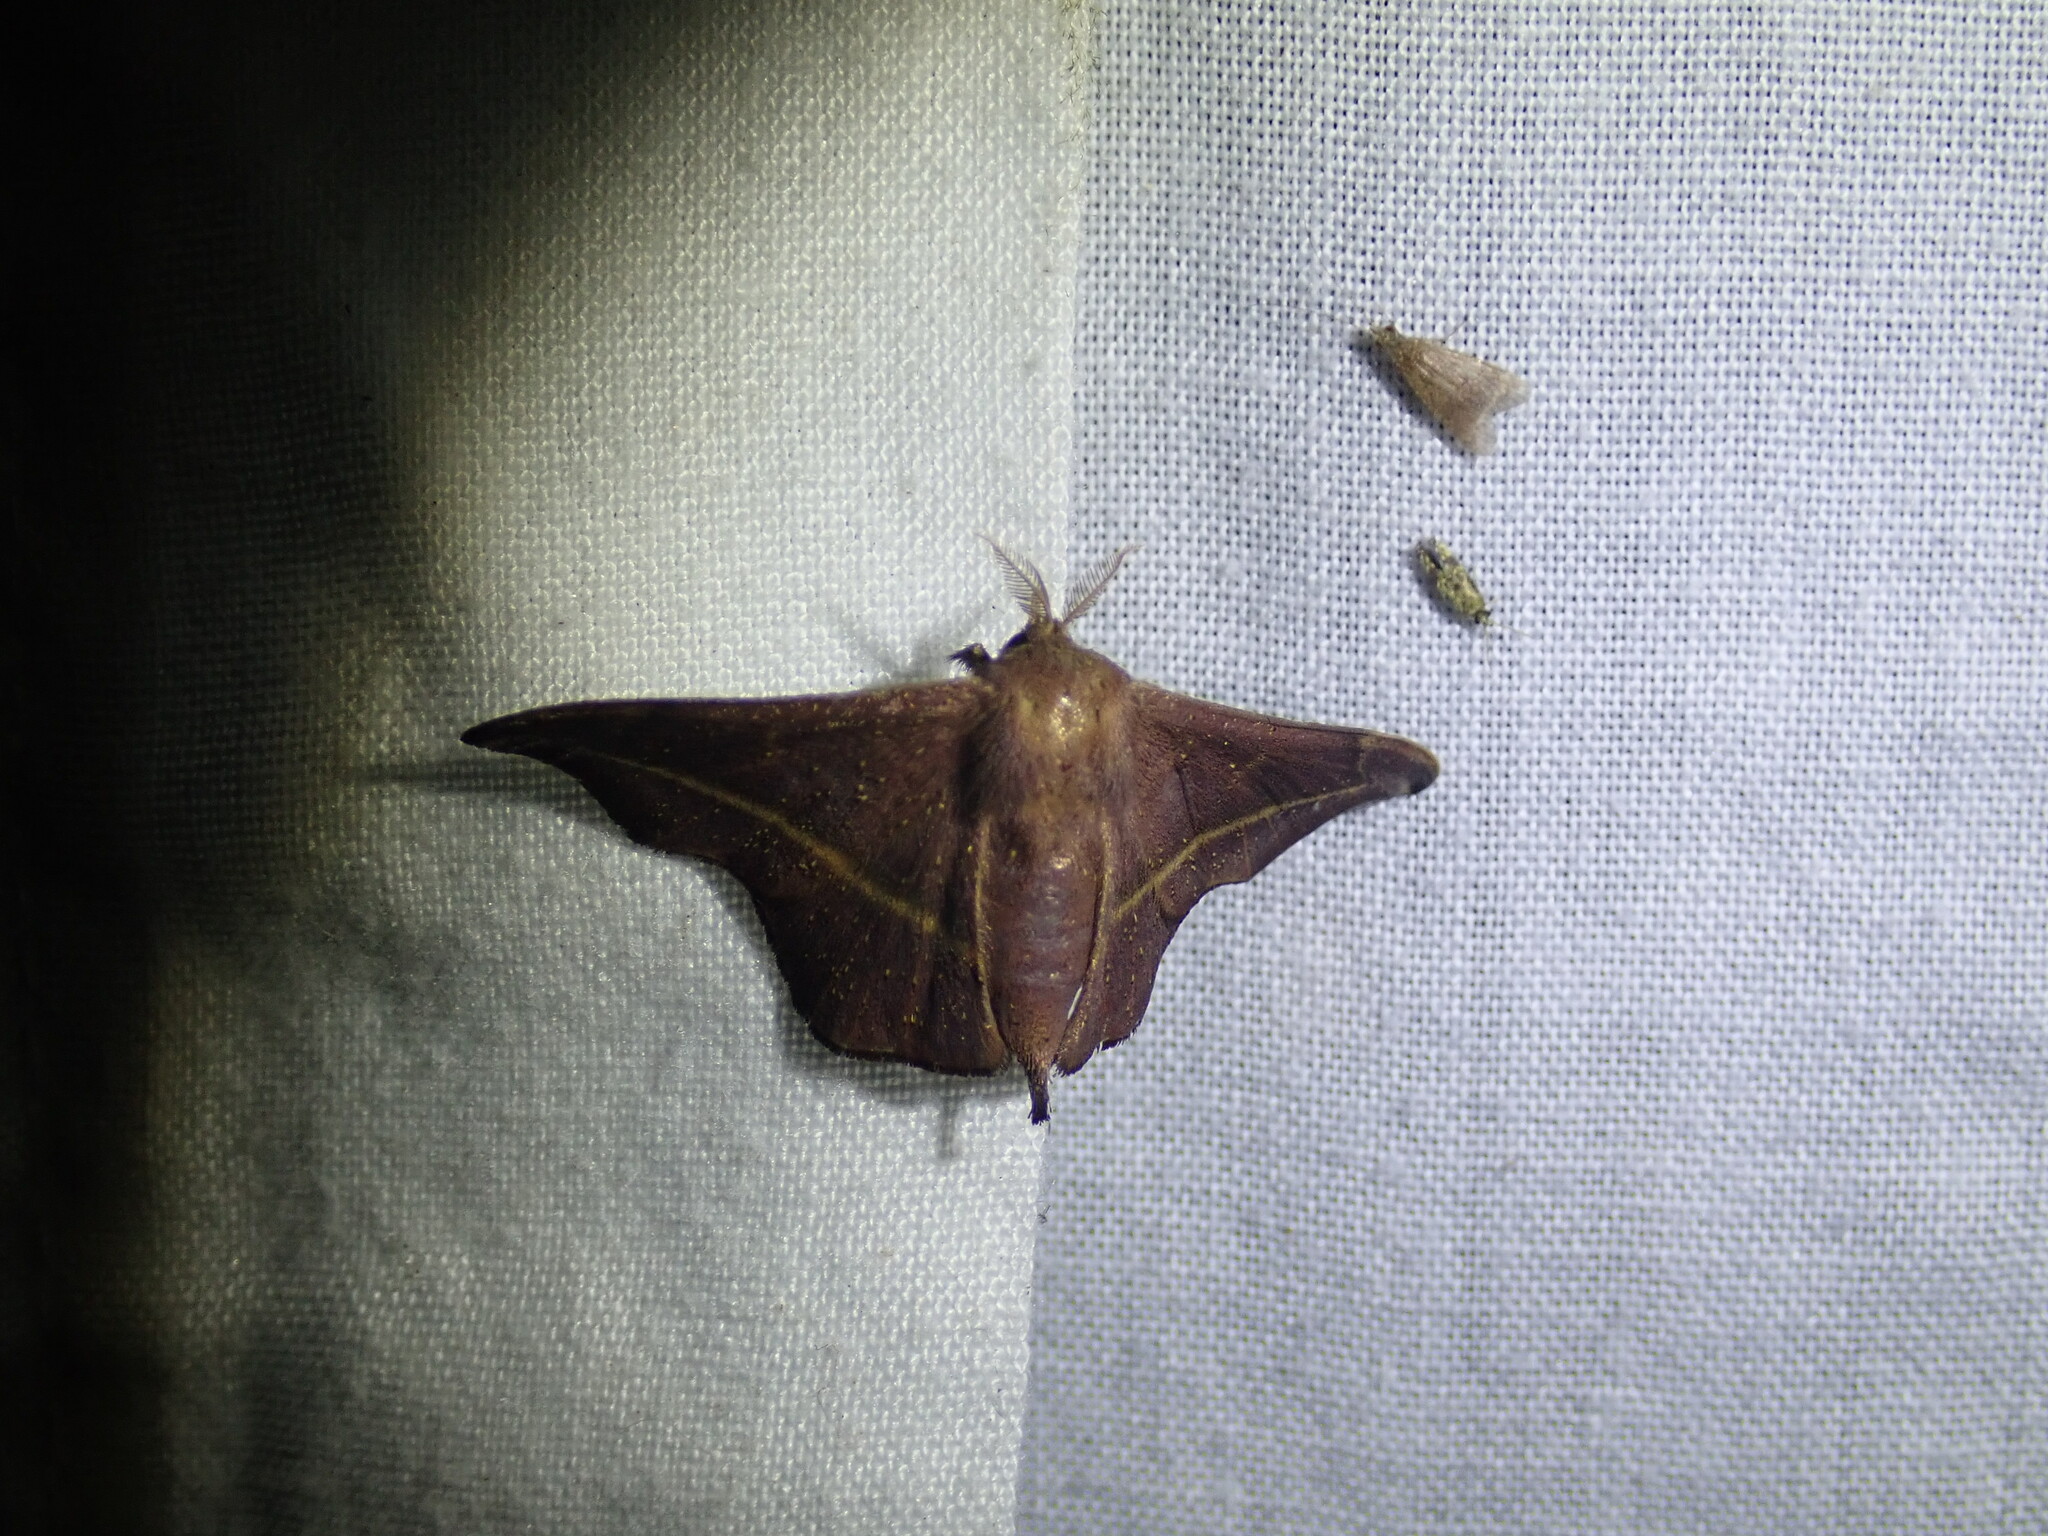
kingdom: Animalia
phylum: Arthropoda
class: Insecta
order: Lepidoptera
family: Mimallonidae
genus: Ulaluma
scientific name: Ulaluma valva
